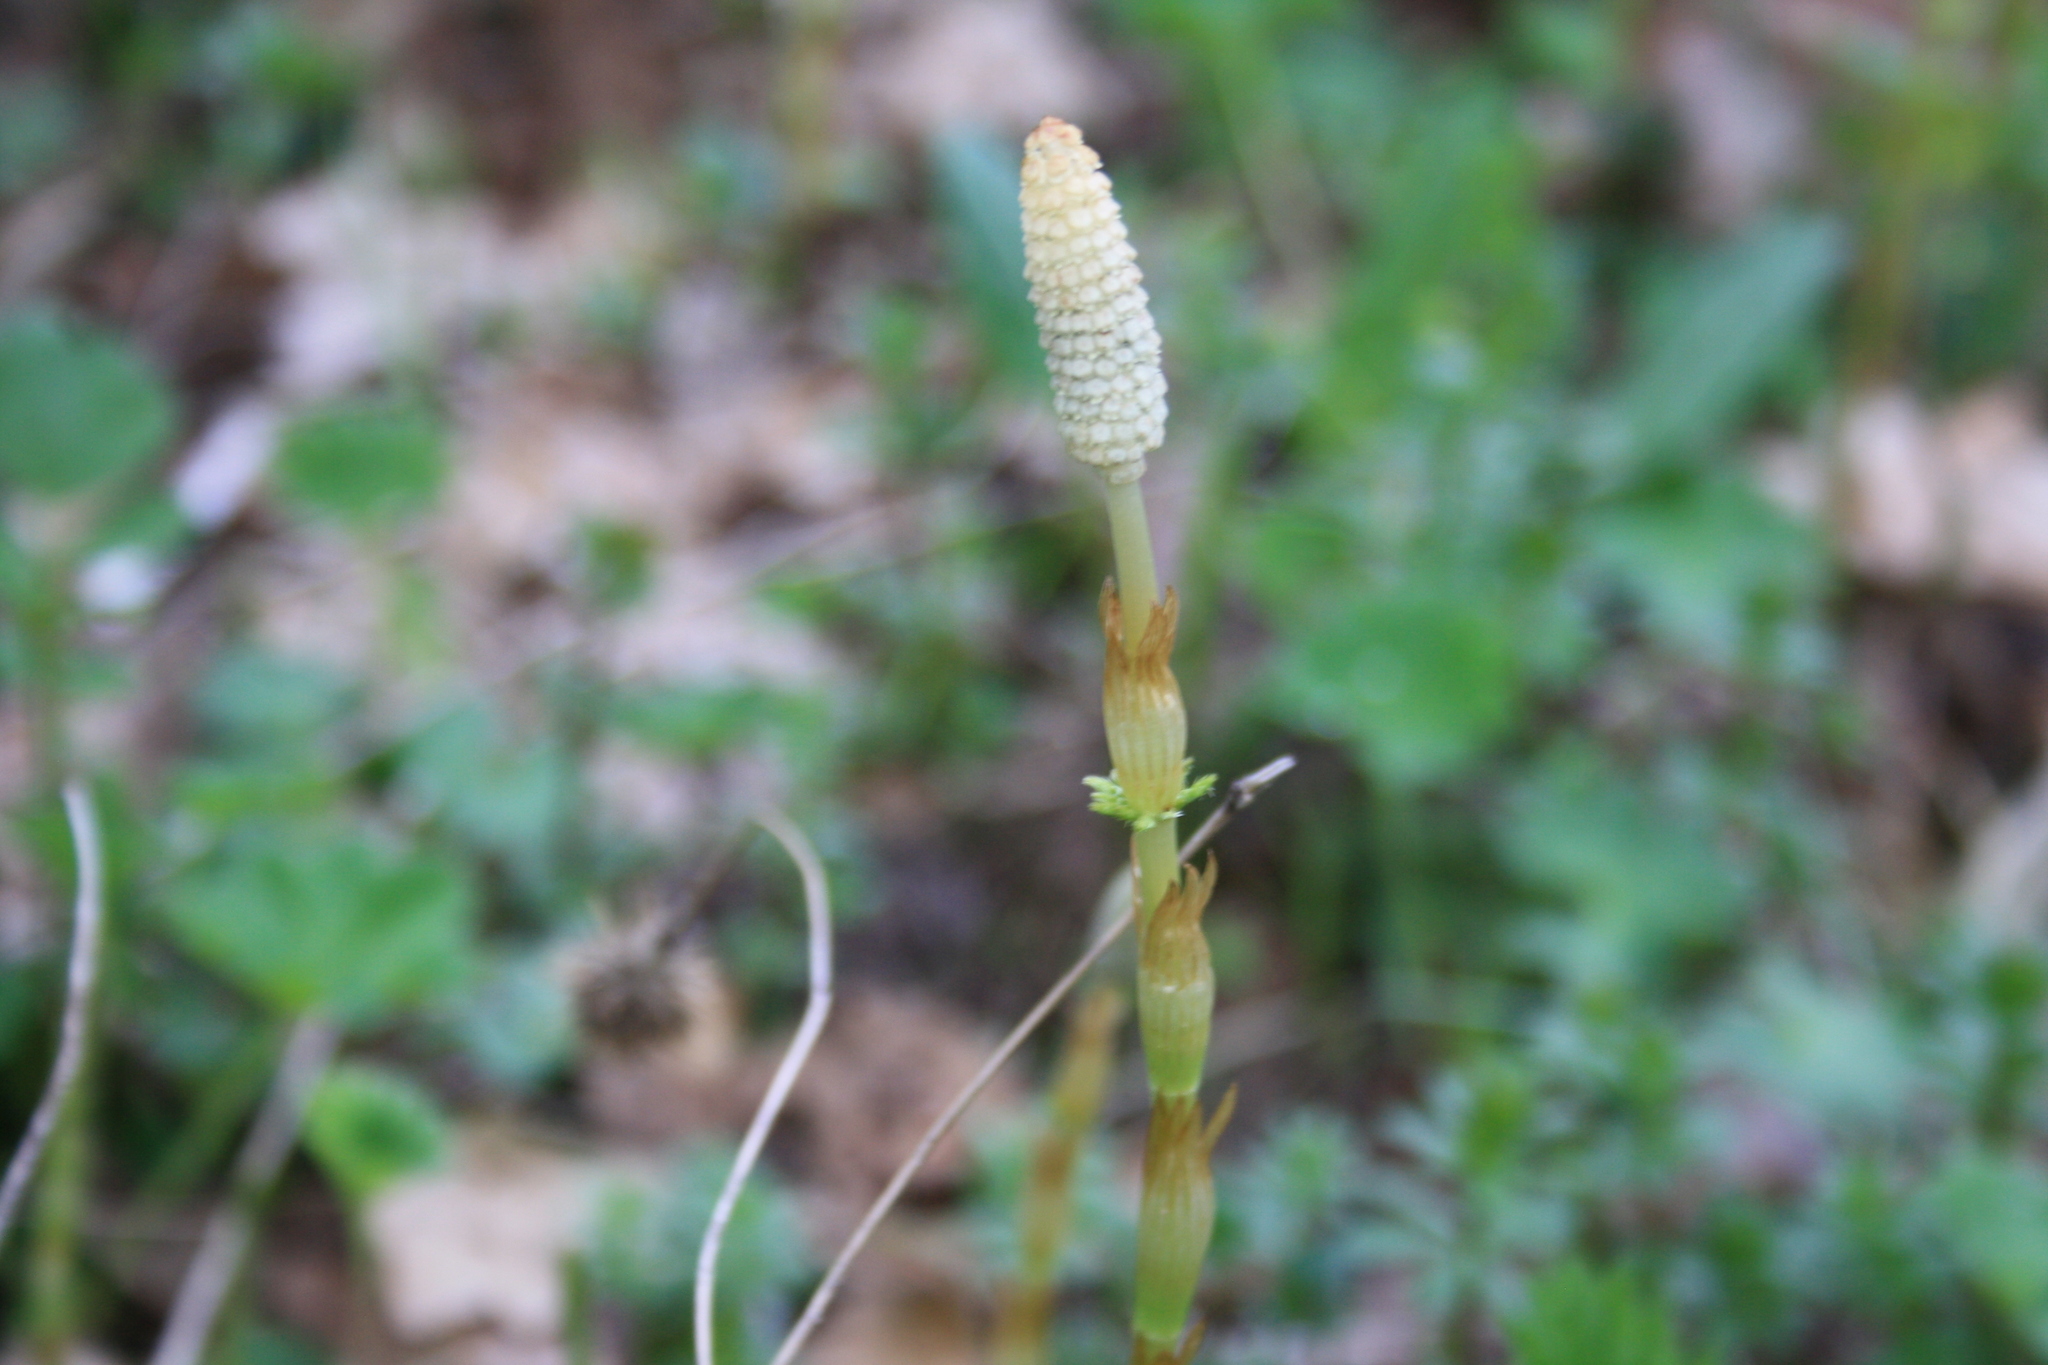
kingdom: Plantae
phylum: Tracheophyta
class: Polypodiopsida
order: Equisetales
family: Equisetaceae
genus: Equisetum
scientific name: Equisetum sylvaticum
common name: Wood horsetail
